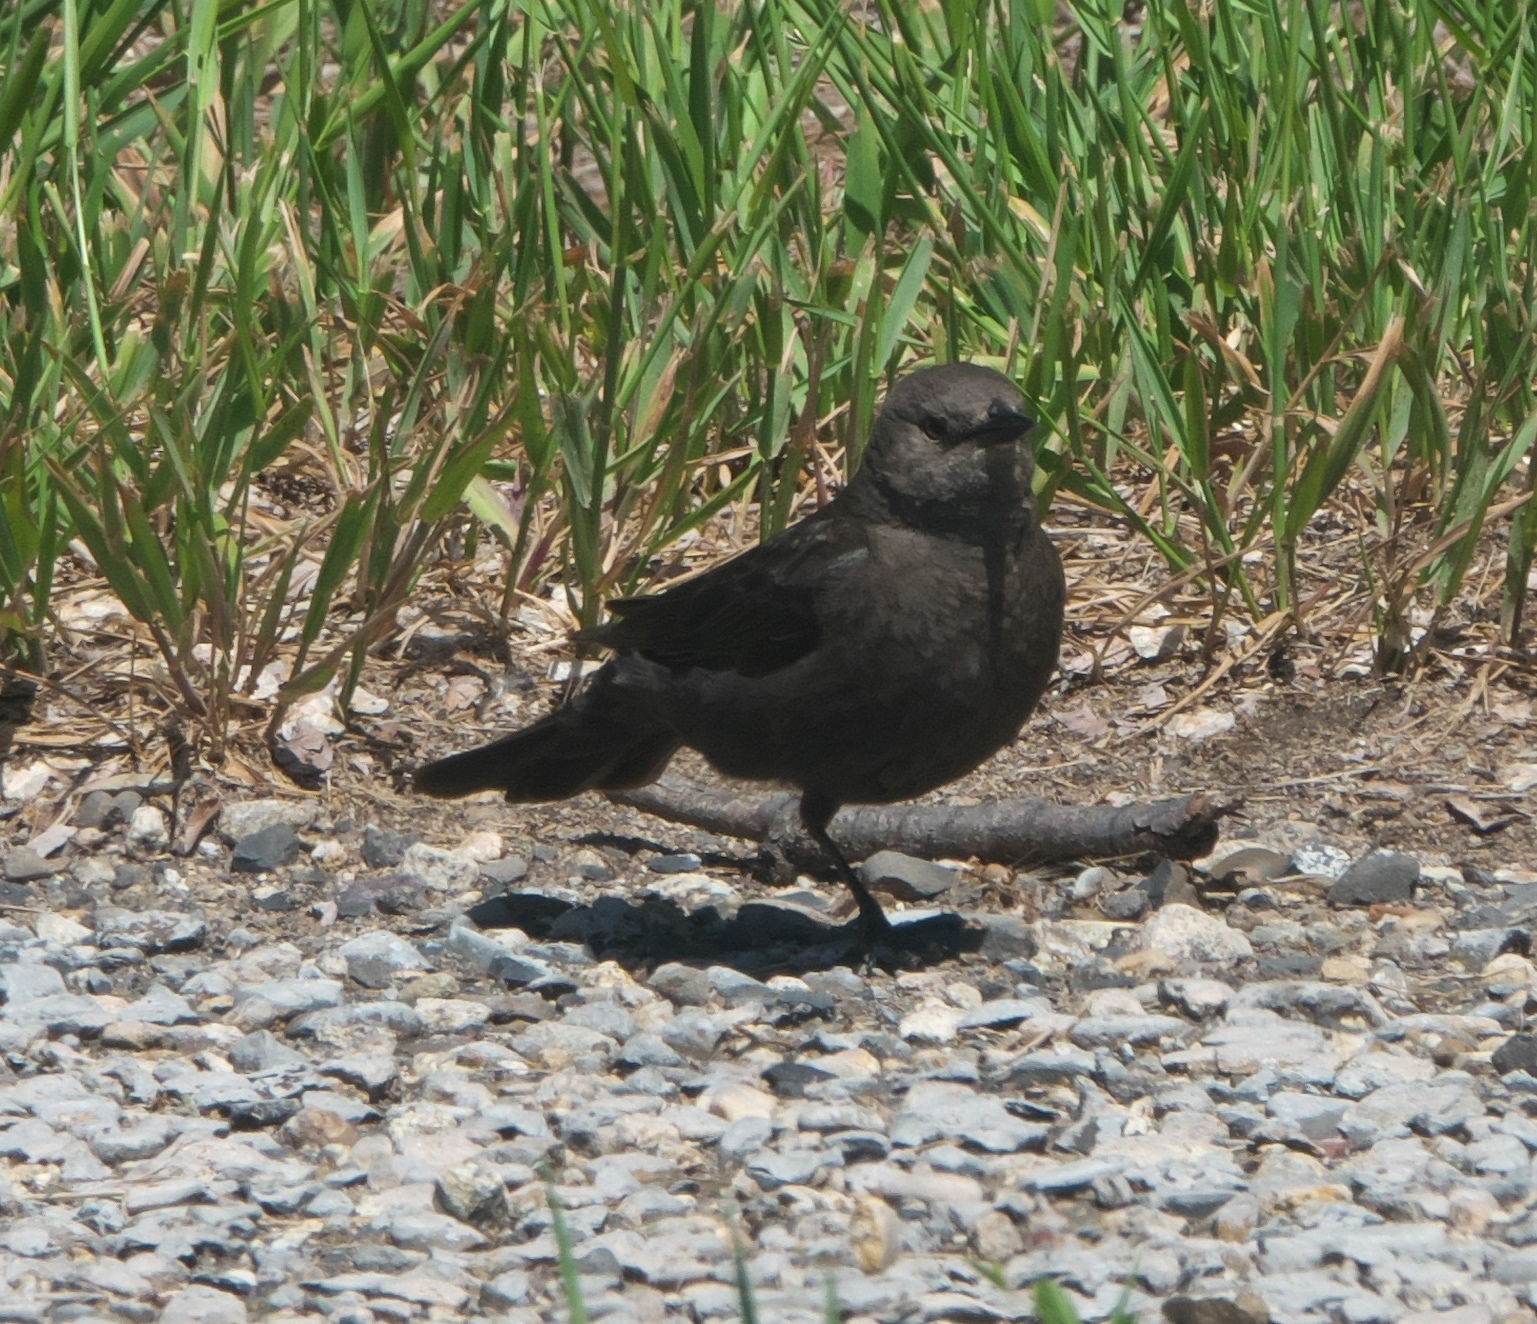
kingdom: Animalia
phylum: Chordata
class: Aves
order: Passeriformes
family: Icteridae
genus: Euphagus
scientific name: Euphagus cyanocephalus
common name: Brewer's blackbird
